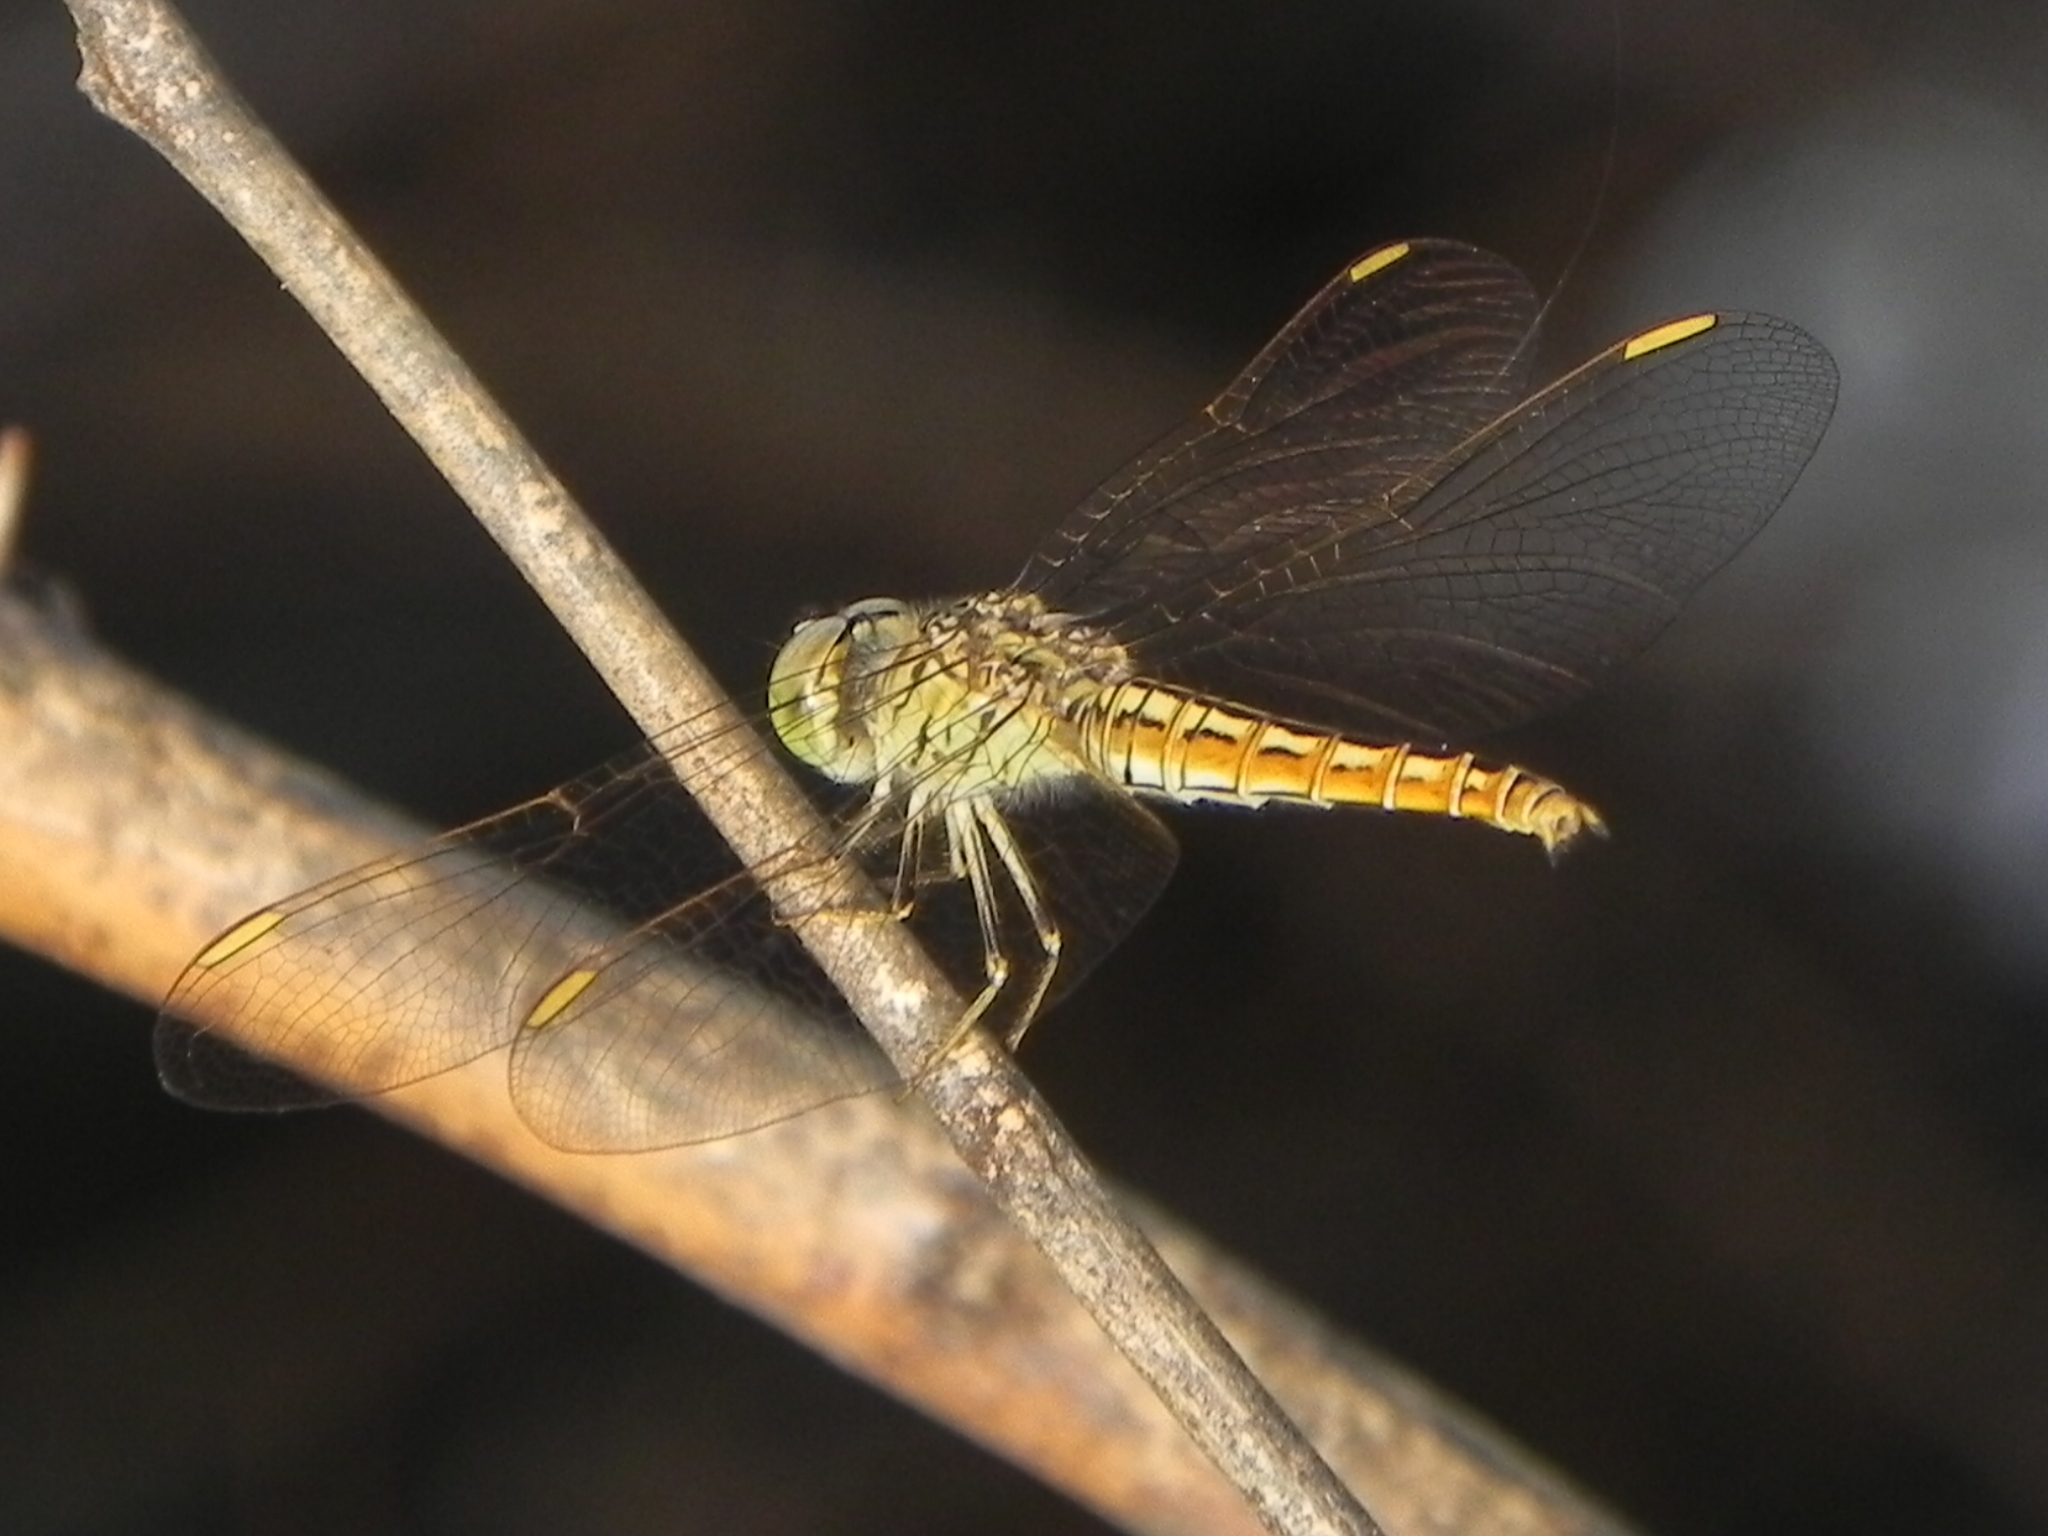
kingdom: Animalia
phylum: Arthropoda
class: Insecta
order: Odonata
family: Libellulidae
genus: Brachythemis
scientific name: Brachythemis contaminata
